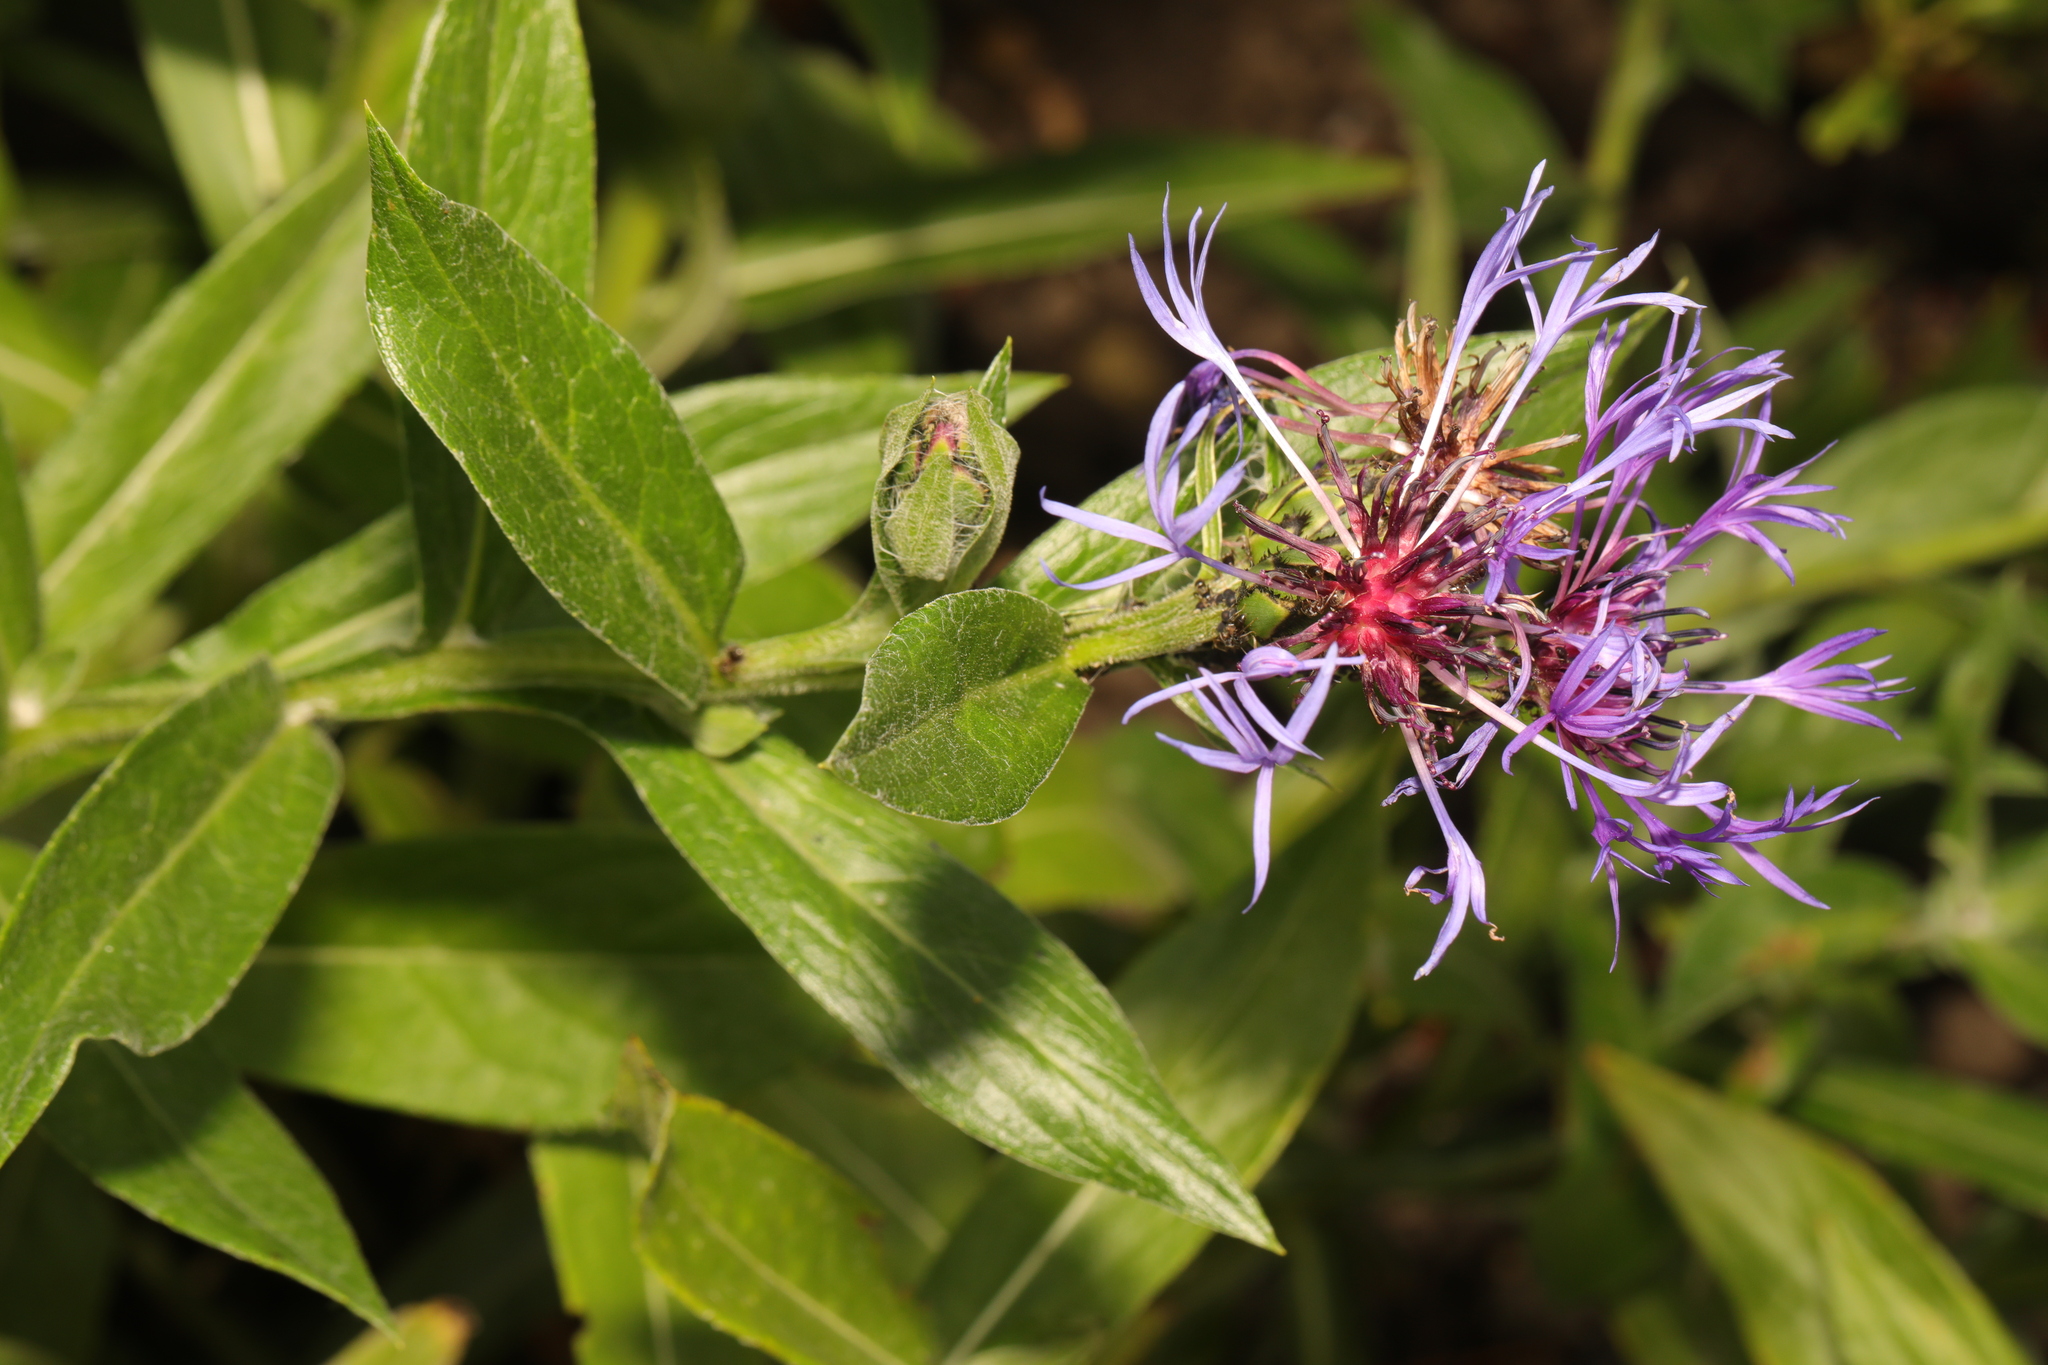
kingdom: Plantae
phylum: Tracheophyta
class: Magnoliopsida
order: Asterales
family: Asteraceae
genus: Centaurea
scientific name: Centaurea montana
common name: Perennial cornflower
